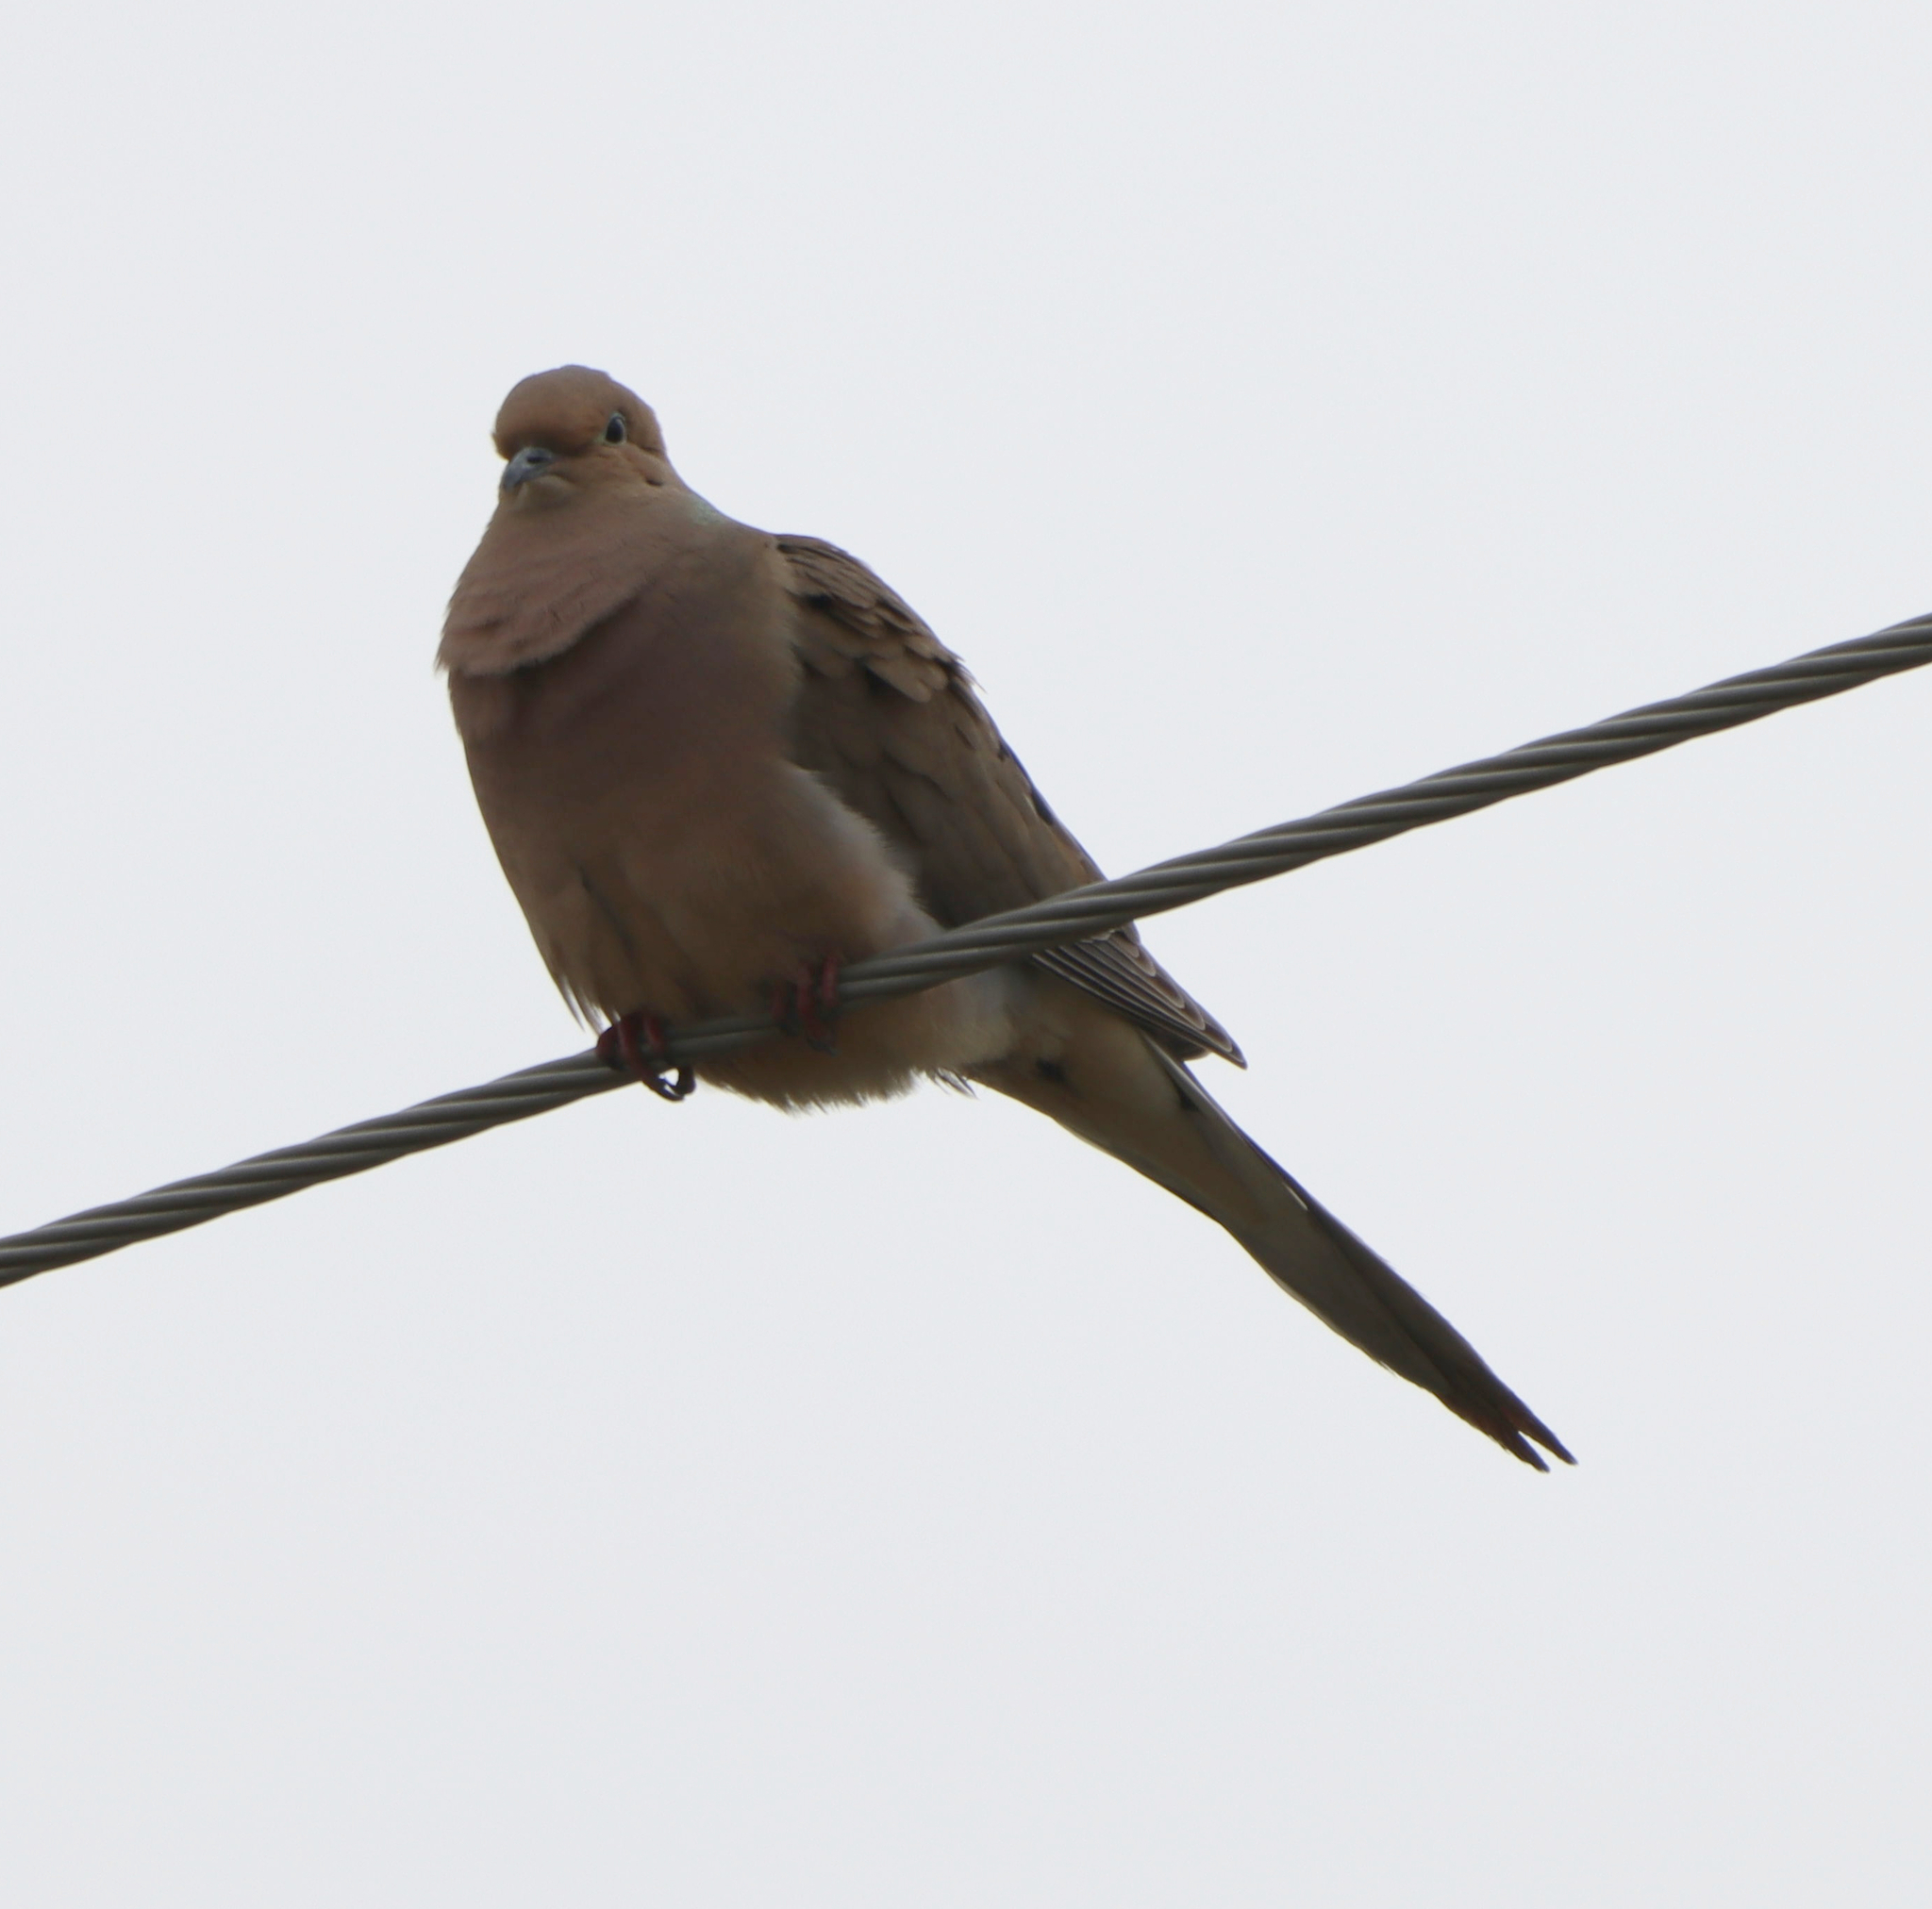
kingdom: Animalia
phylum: Chordata
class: Aves
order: Columbiformes
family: Columbidae
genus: Zenaida
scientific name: Zenaida macroura
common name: Mourning dove
